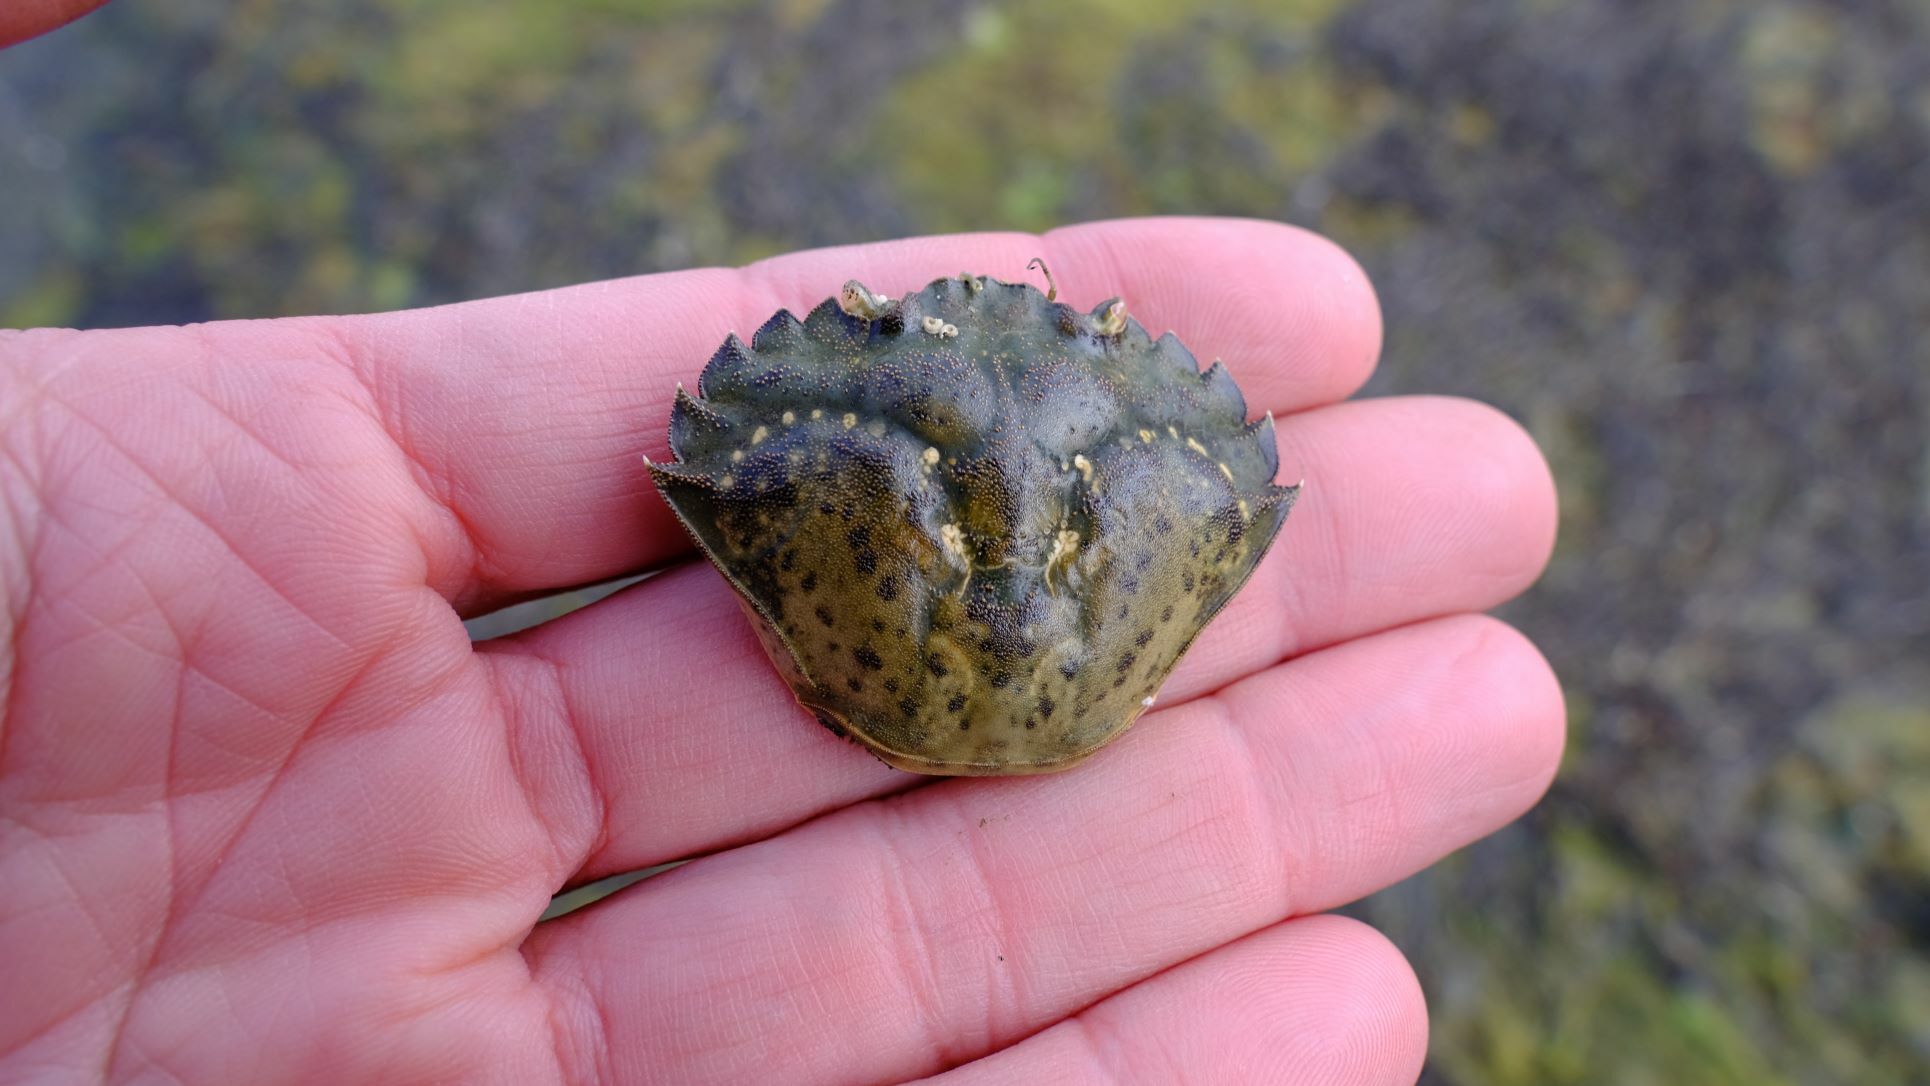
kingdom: Animalia
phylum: Arthropoda
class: Malacostraca
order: Decapoda
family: Carcinidae
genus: Carcinus
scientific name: Carcinus maenas
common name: European green crab
